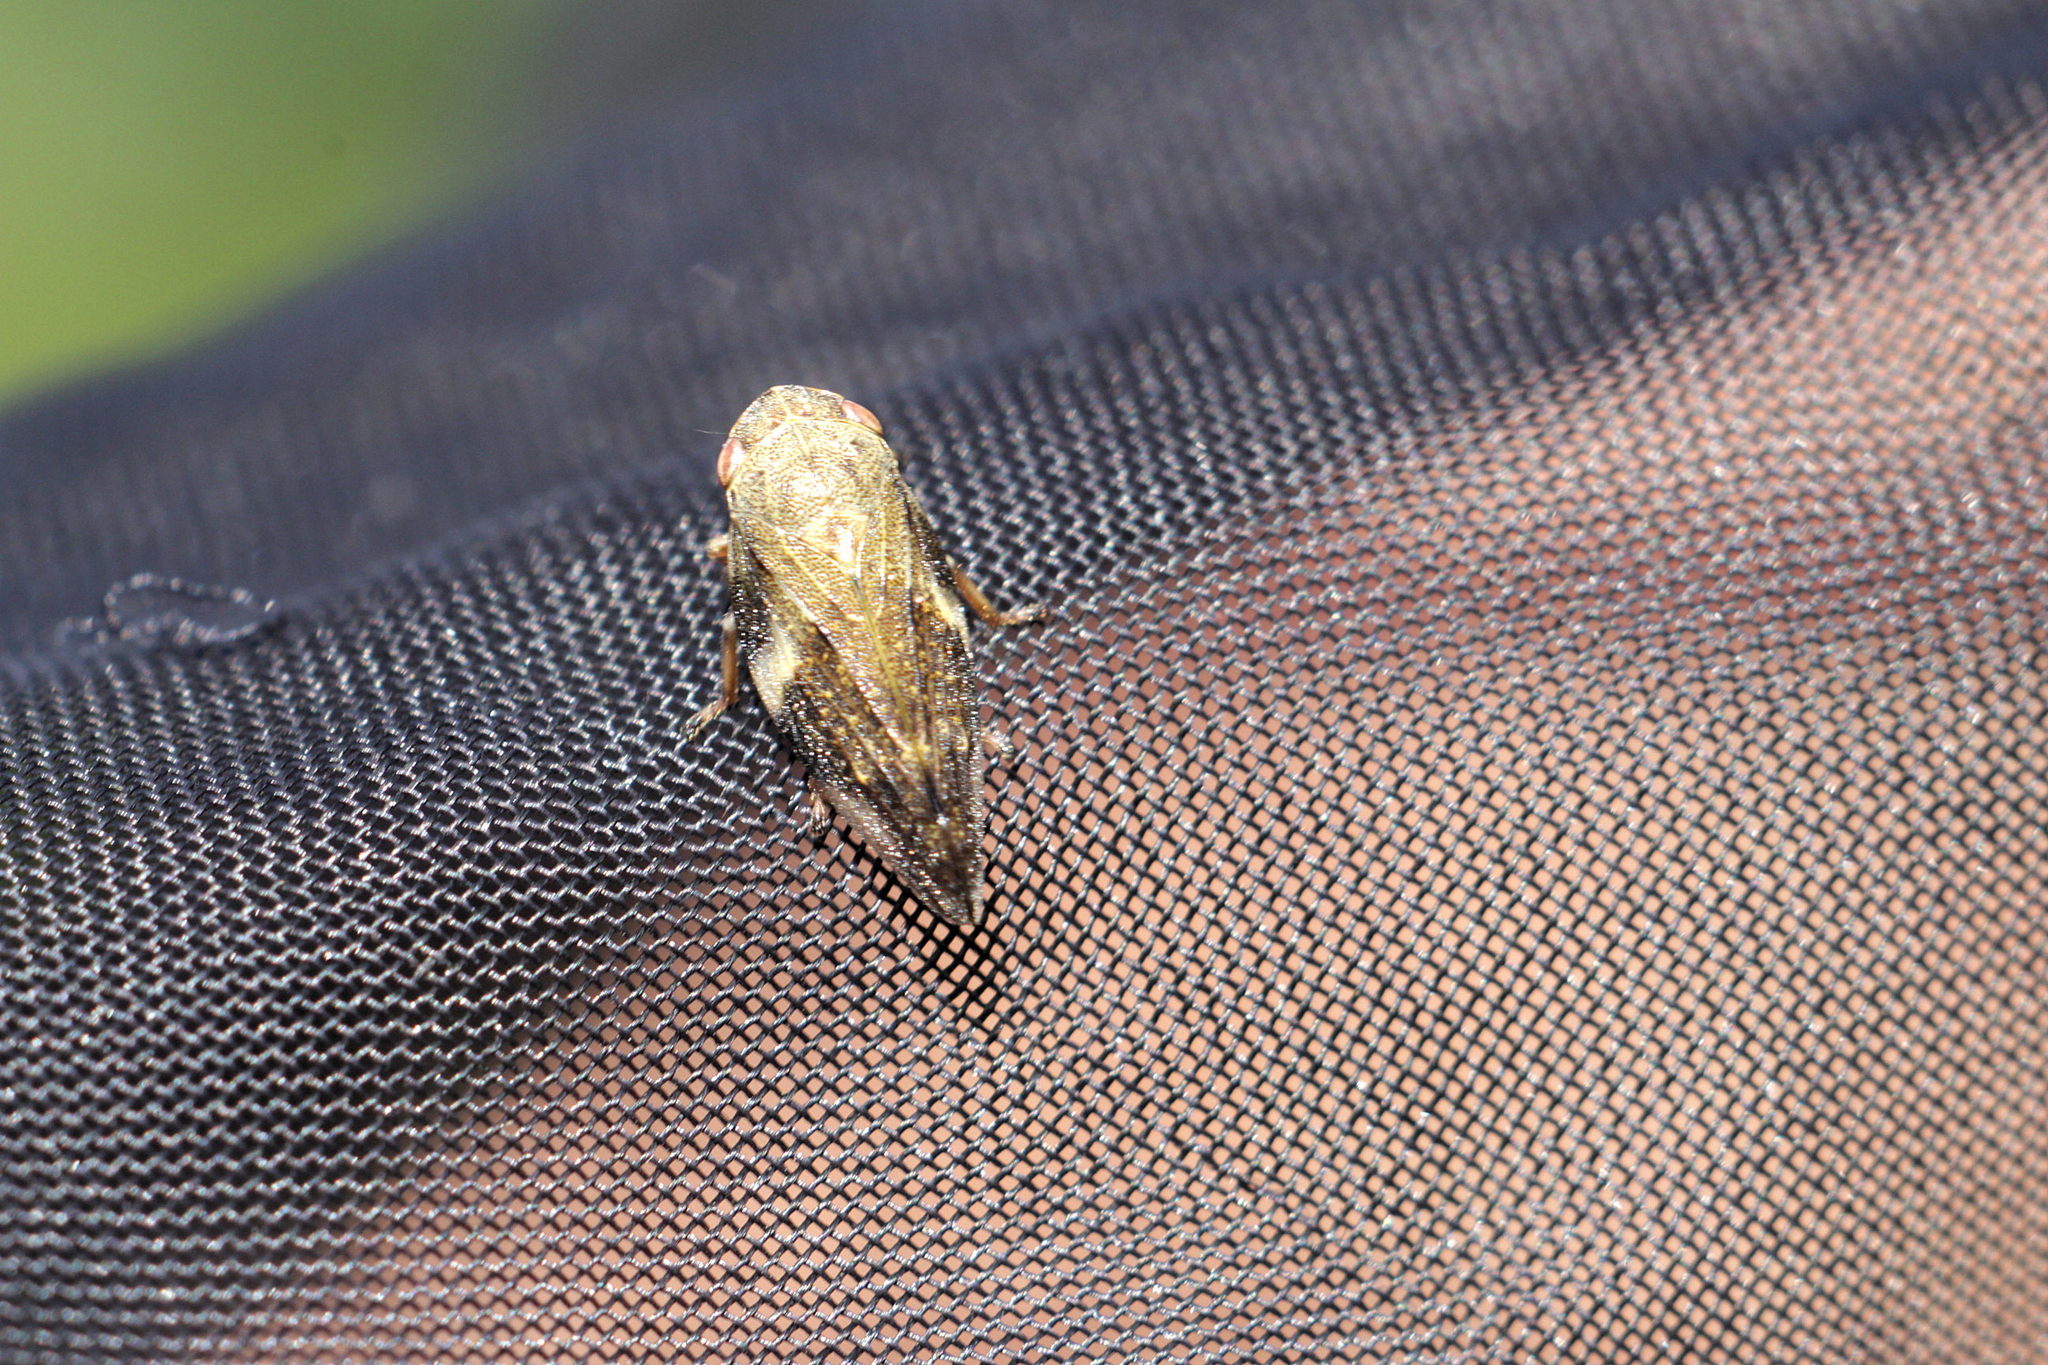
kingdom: Animalia
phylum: Arthropoda
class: Insecta
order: Hemiptera
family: Aphrophoridae
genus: Aphrophora
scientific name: Aphrophora alni
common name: European alder spittlebug
